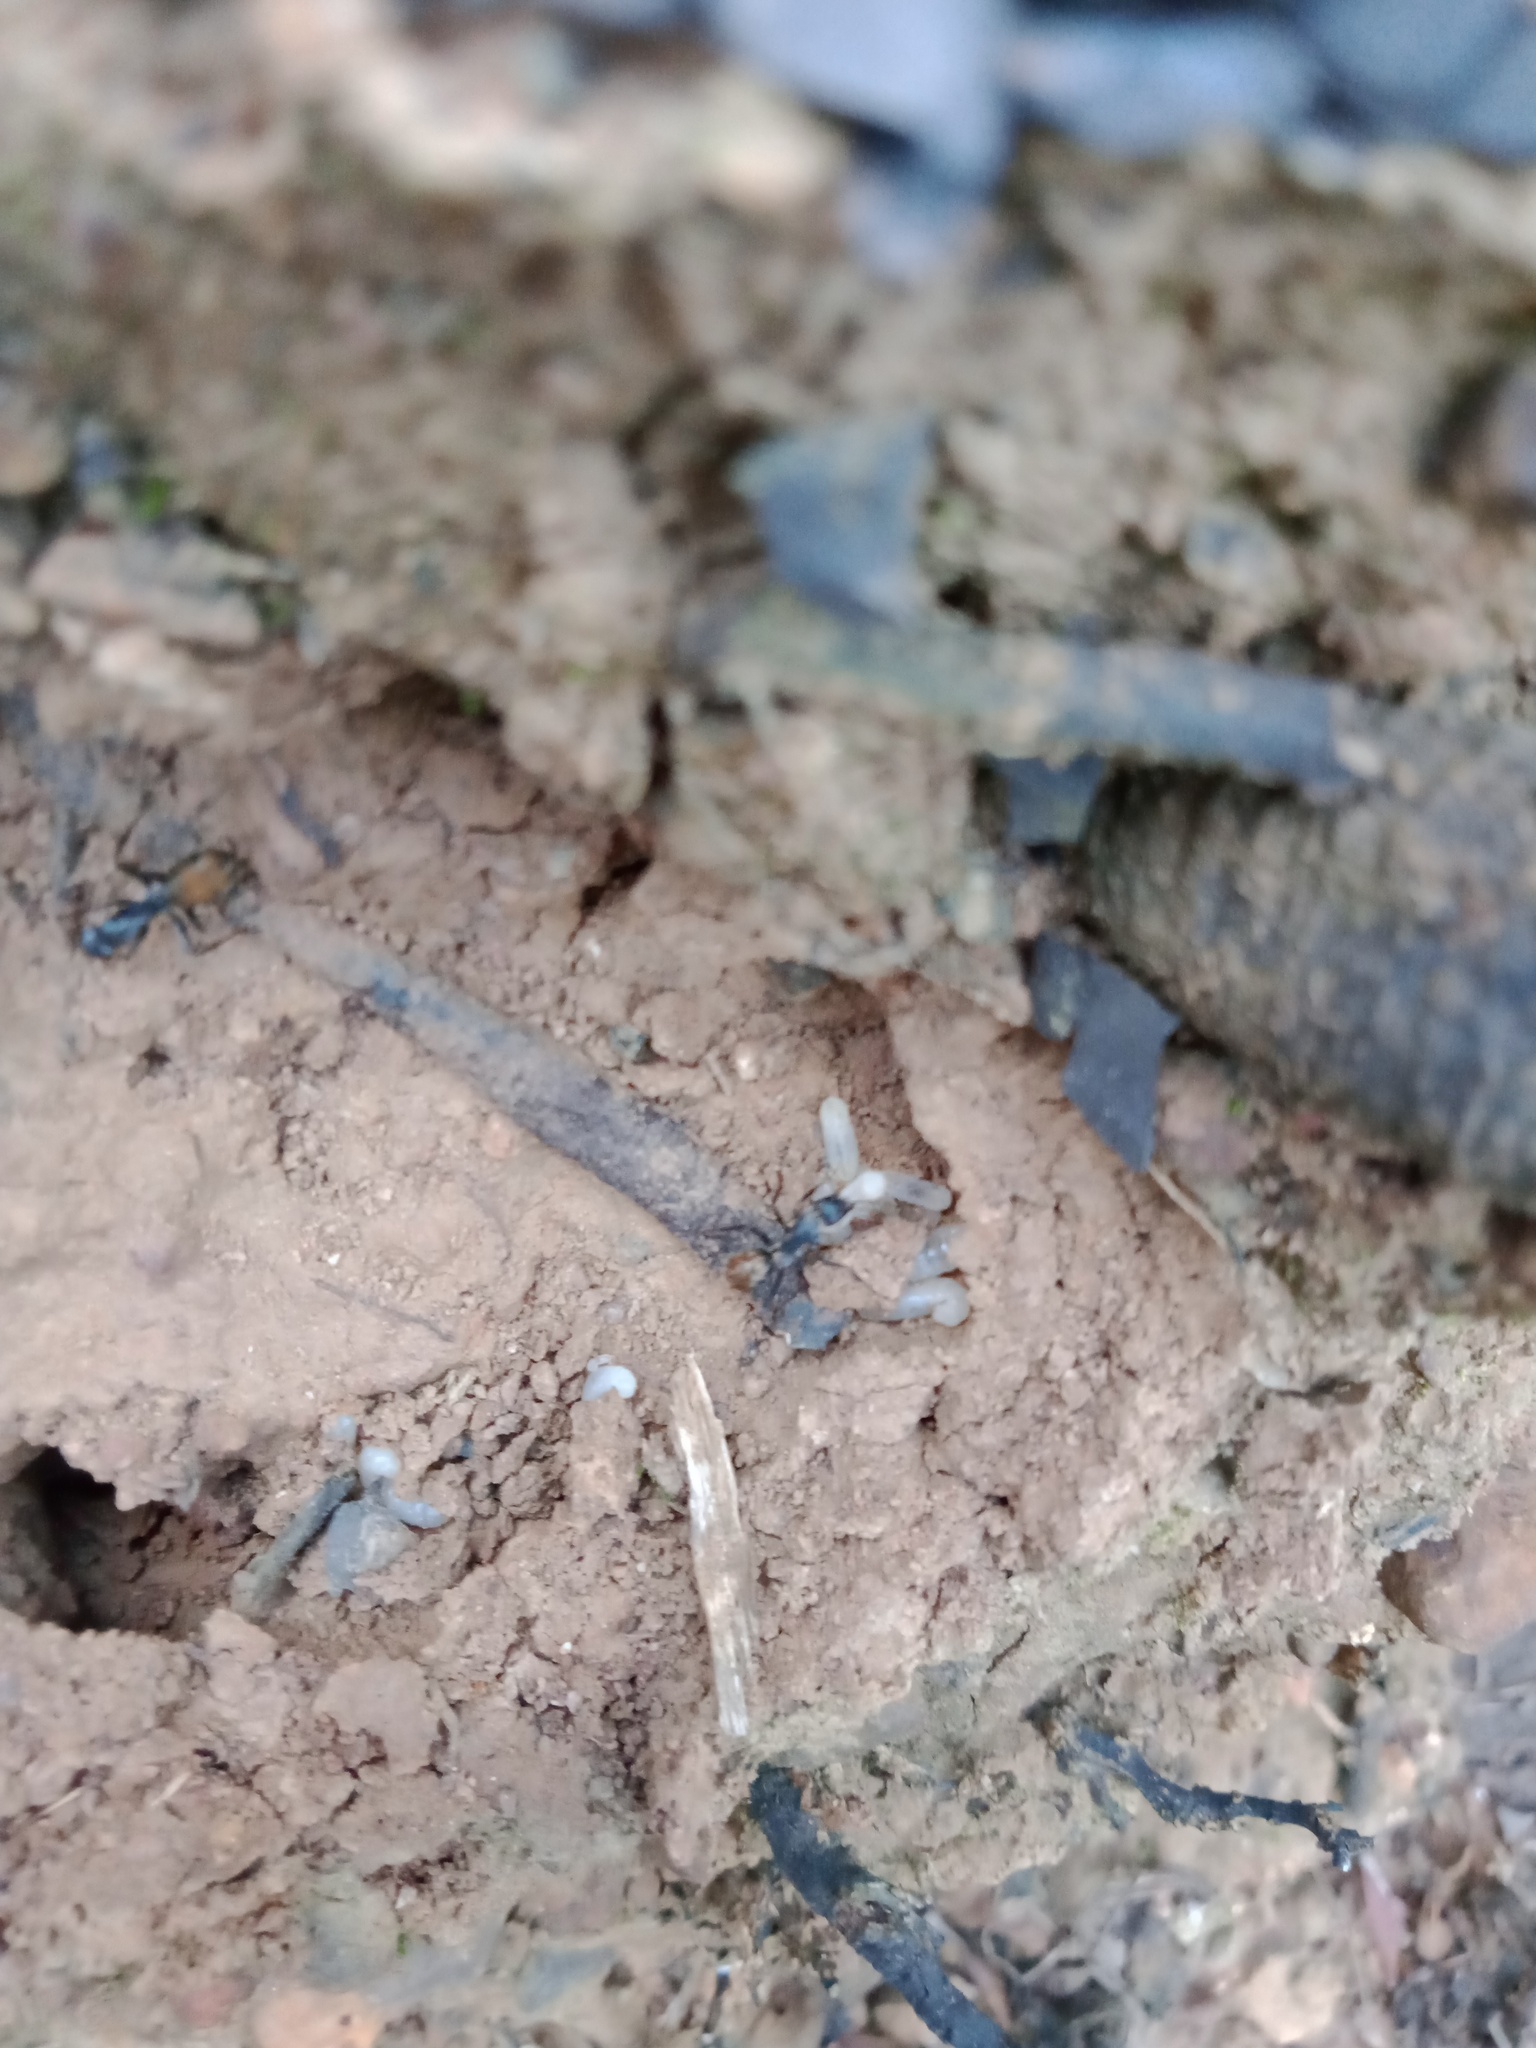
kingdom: Animalia
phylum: Arthropoda
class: Insecta
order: Hymenoptera
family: Formicidae
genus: Camponotus
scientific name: Camponotus aeneopilosus
